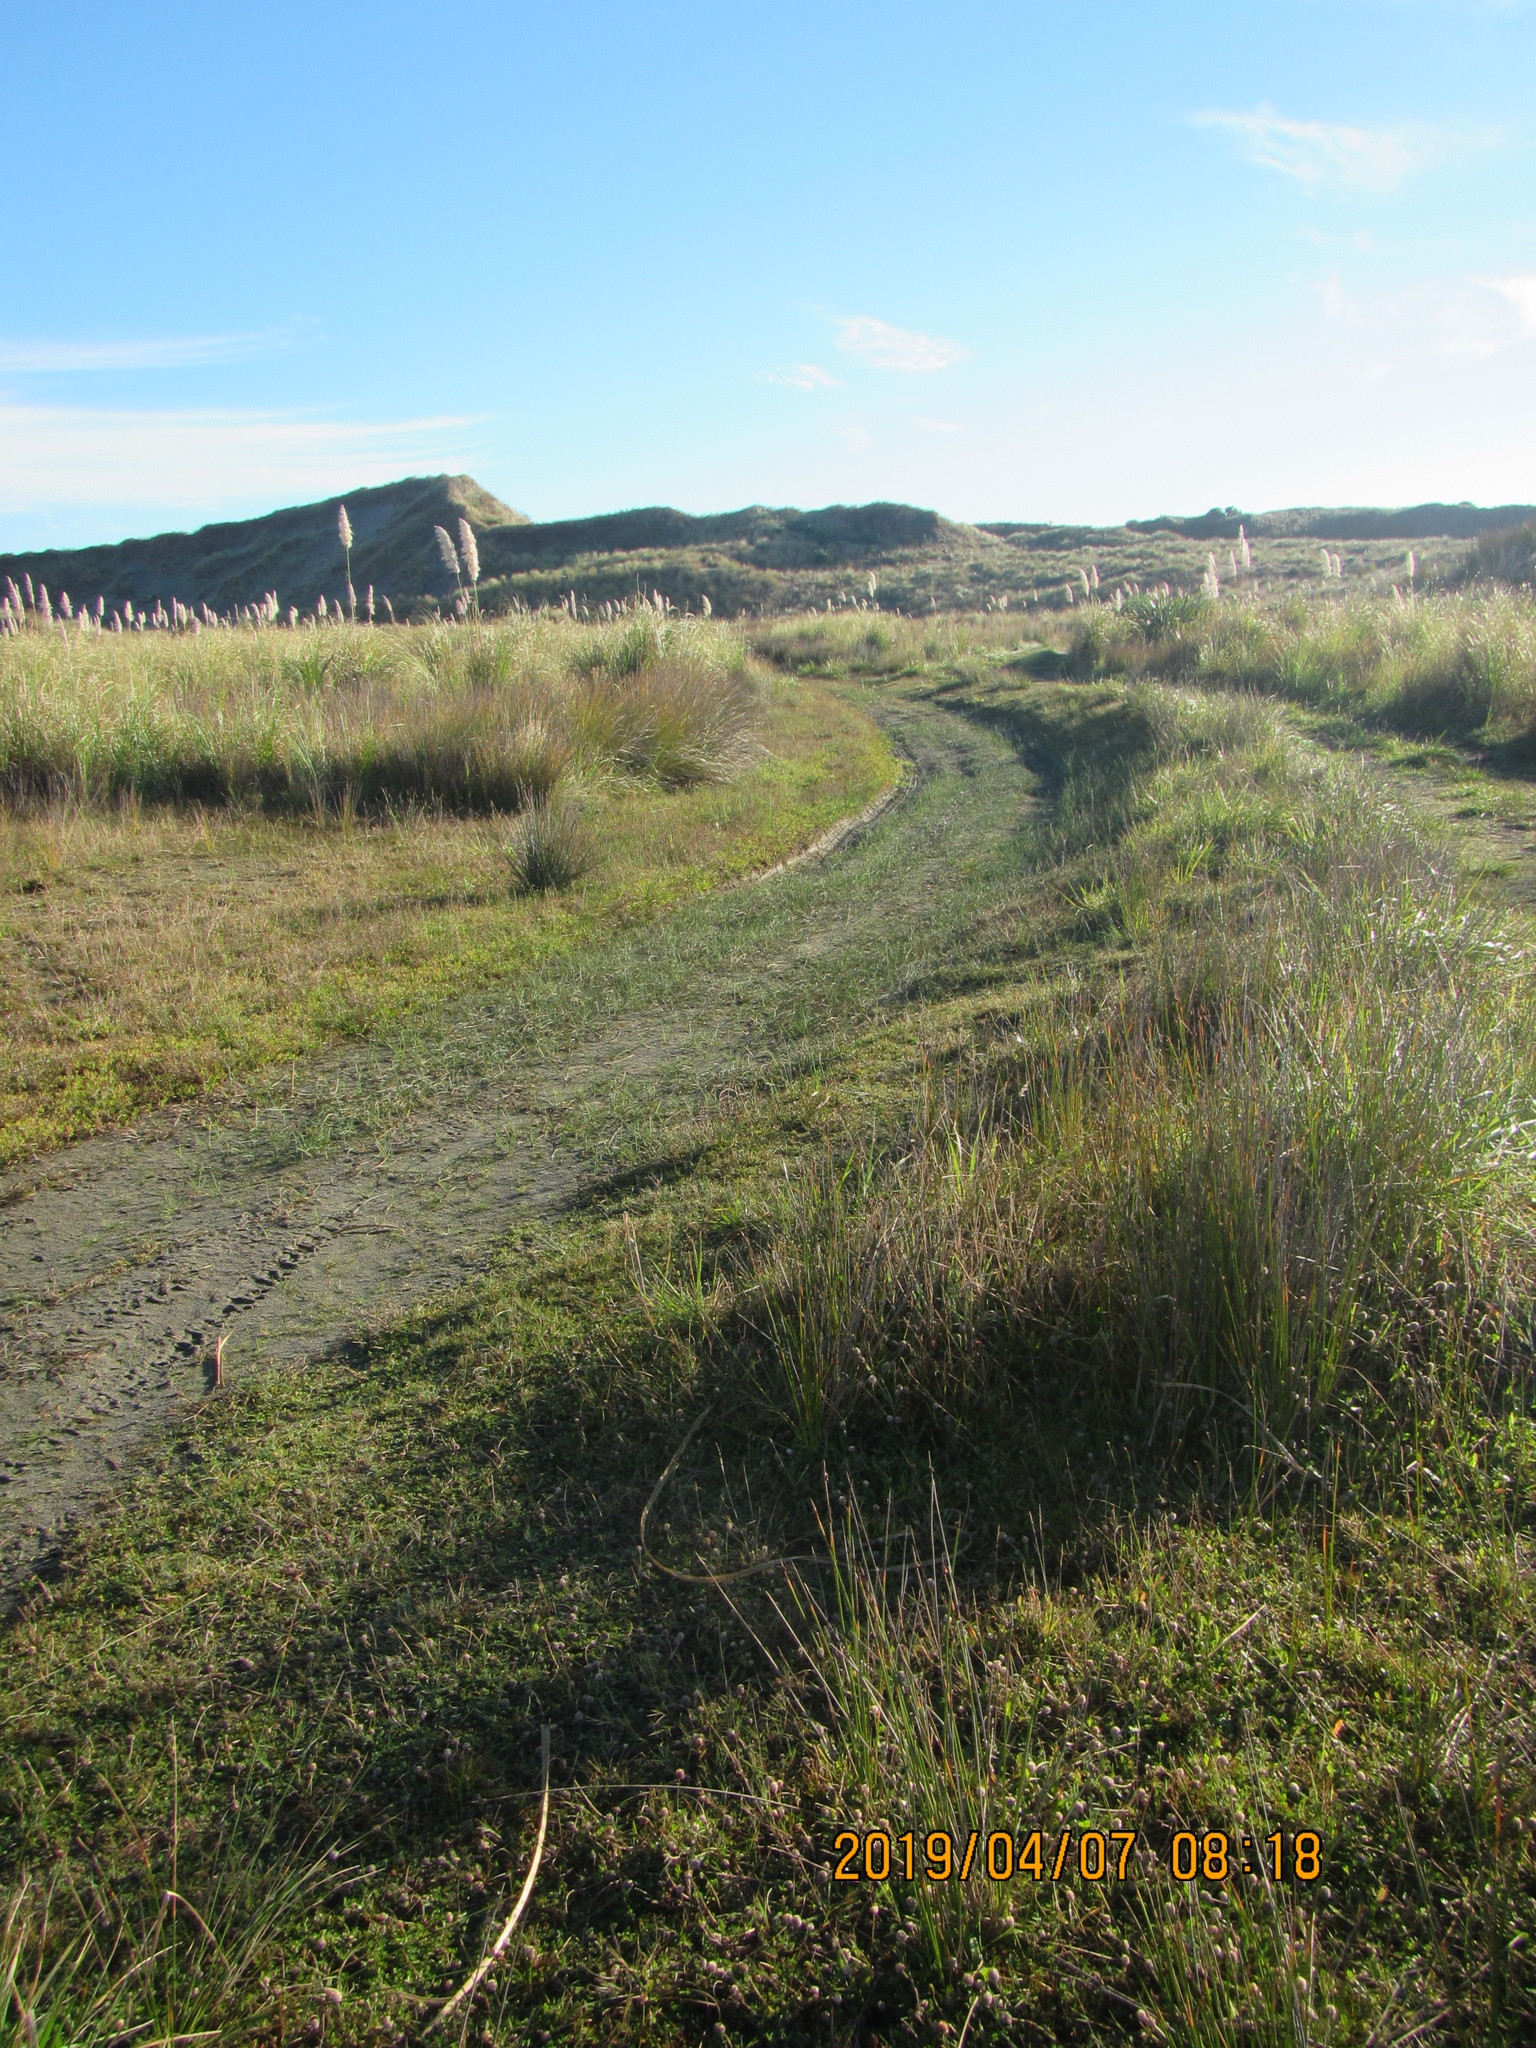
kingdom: Plantae
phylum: Tracheophyta
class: Liliopsida
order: Poales
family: Cyperaceae
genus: Schoenoplectus
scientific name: Schoenoplectus pungens
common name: Sharp club-rush
